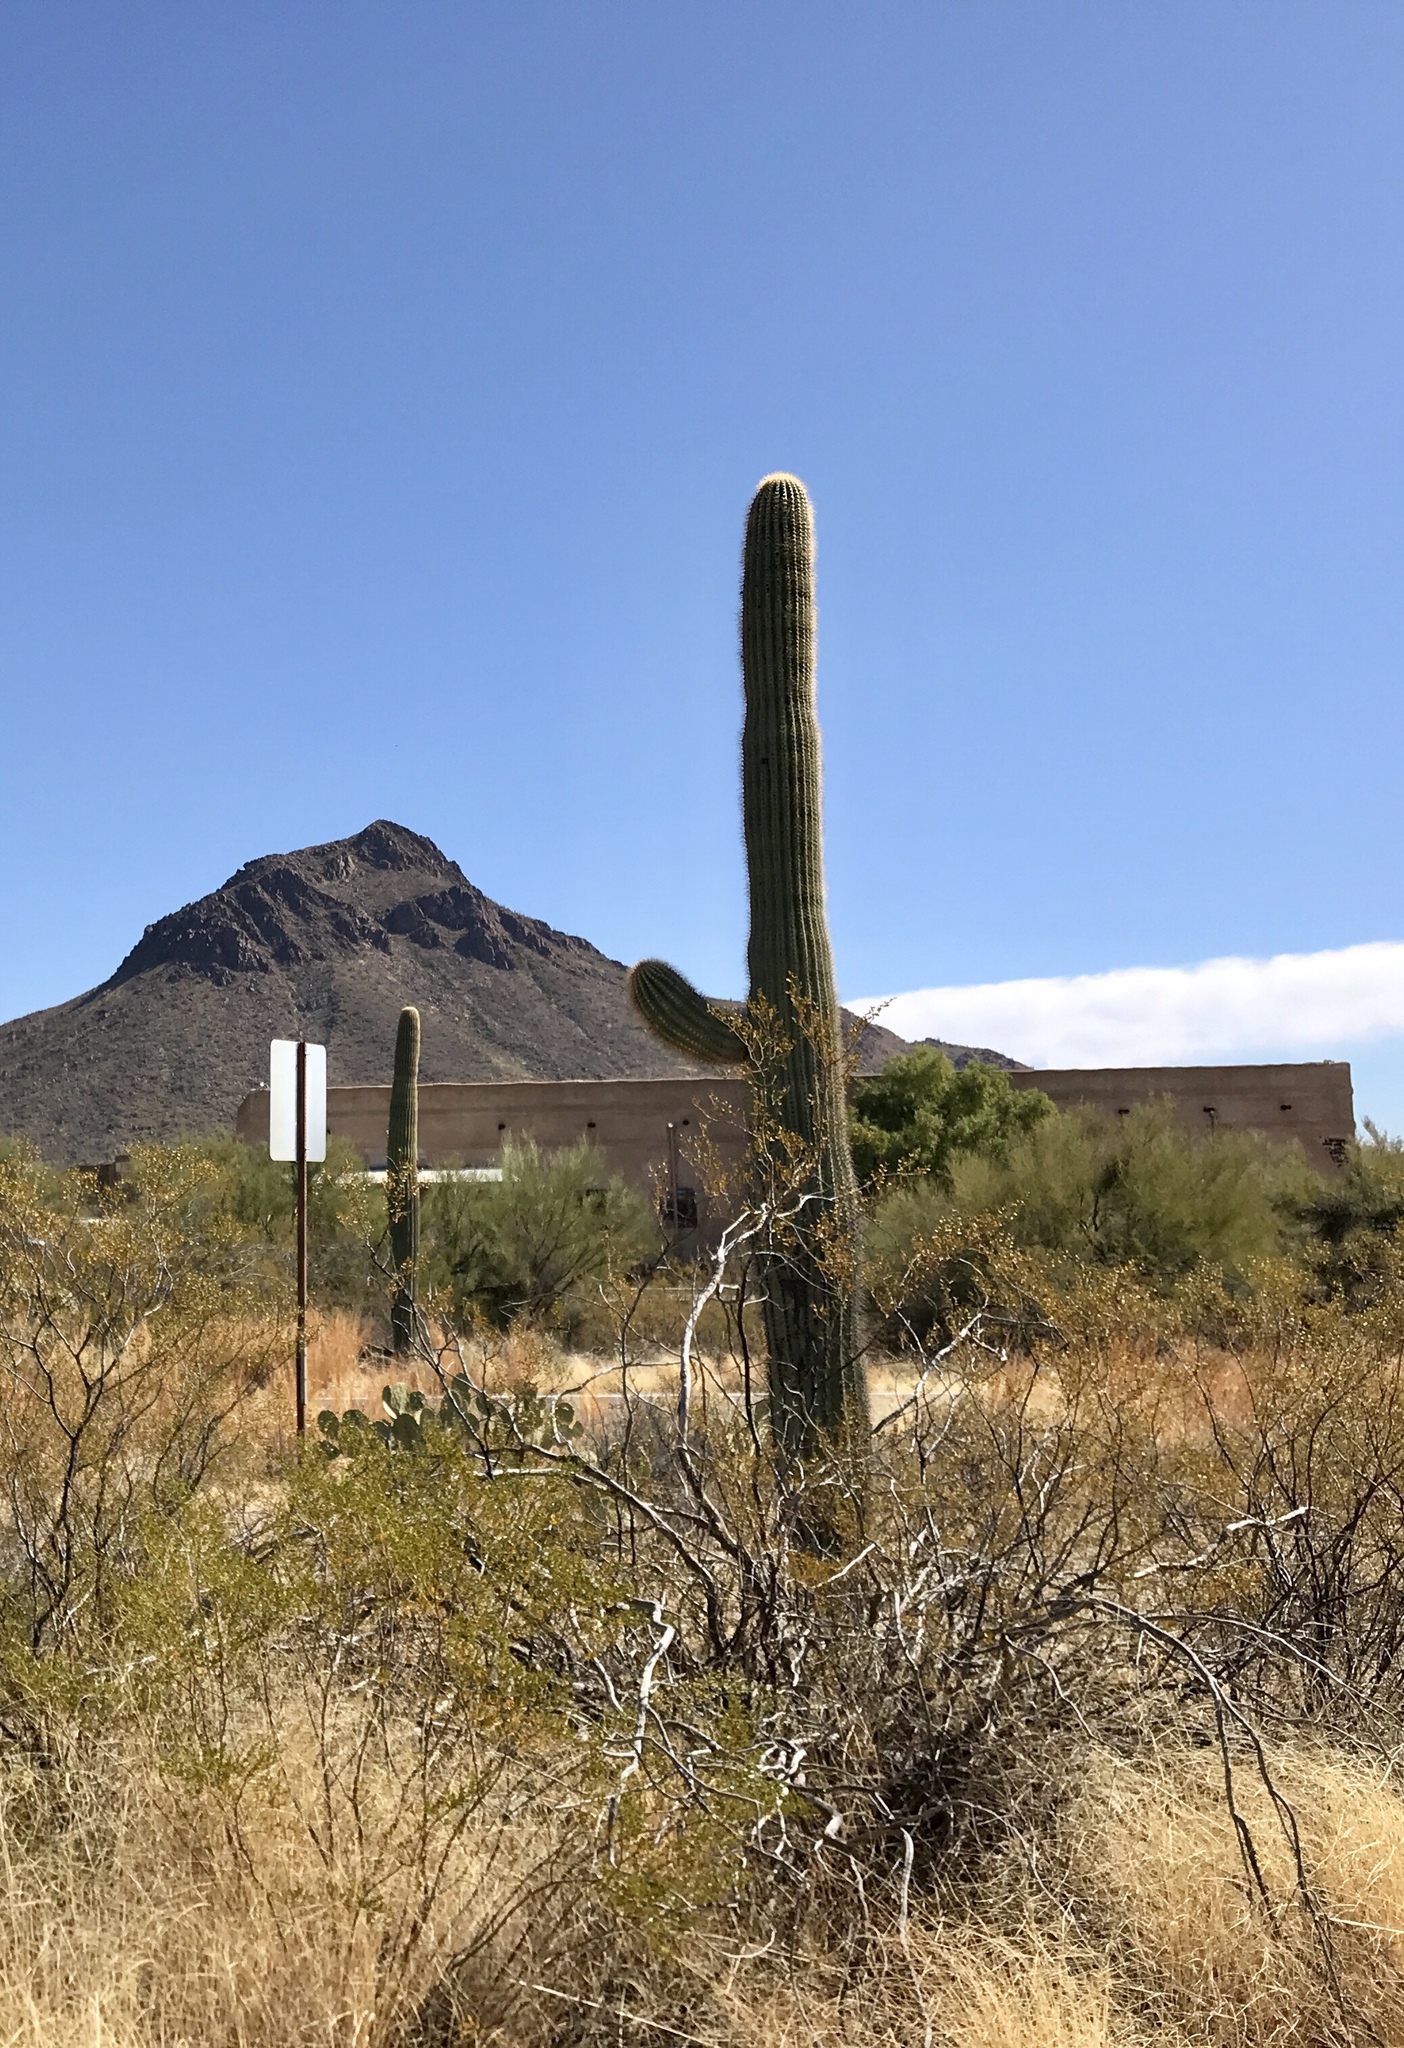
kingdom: Plantae
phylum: Tracheophyta
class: Magnoliopsida
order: Caryophyllales
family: Cactaceae
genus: Carnegiea
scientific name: Carnegiea gigantea
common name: Saguaro
